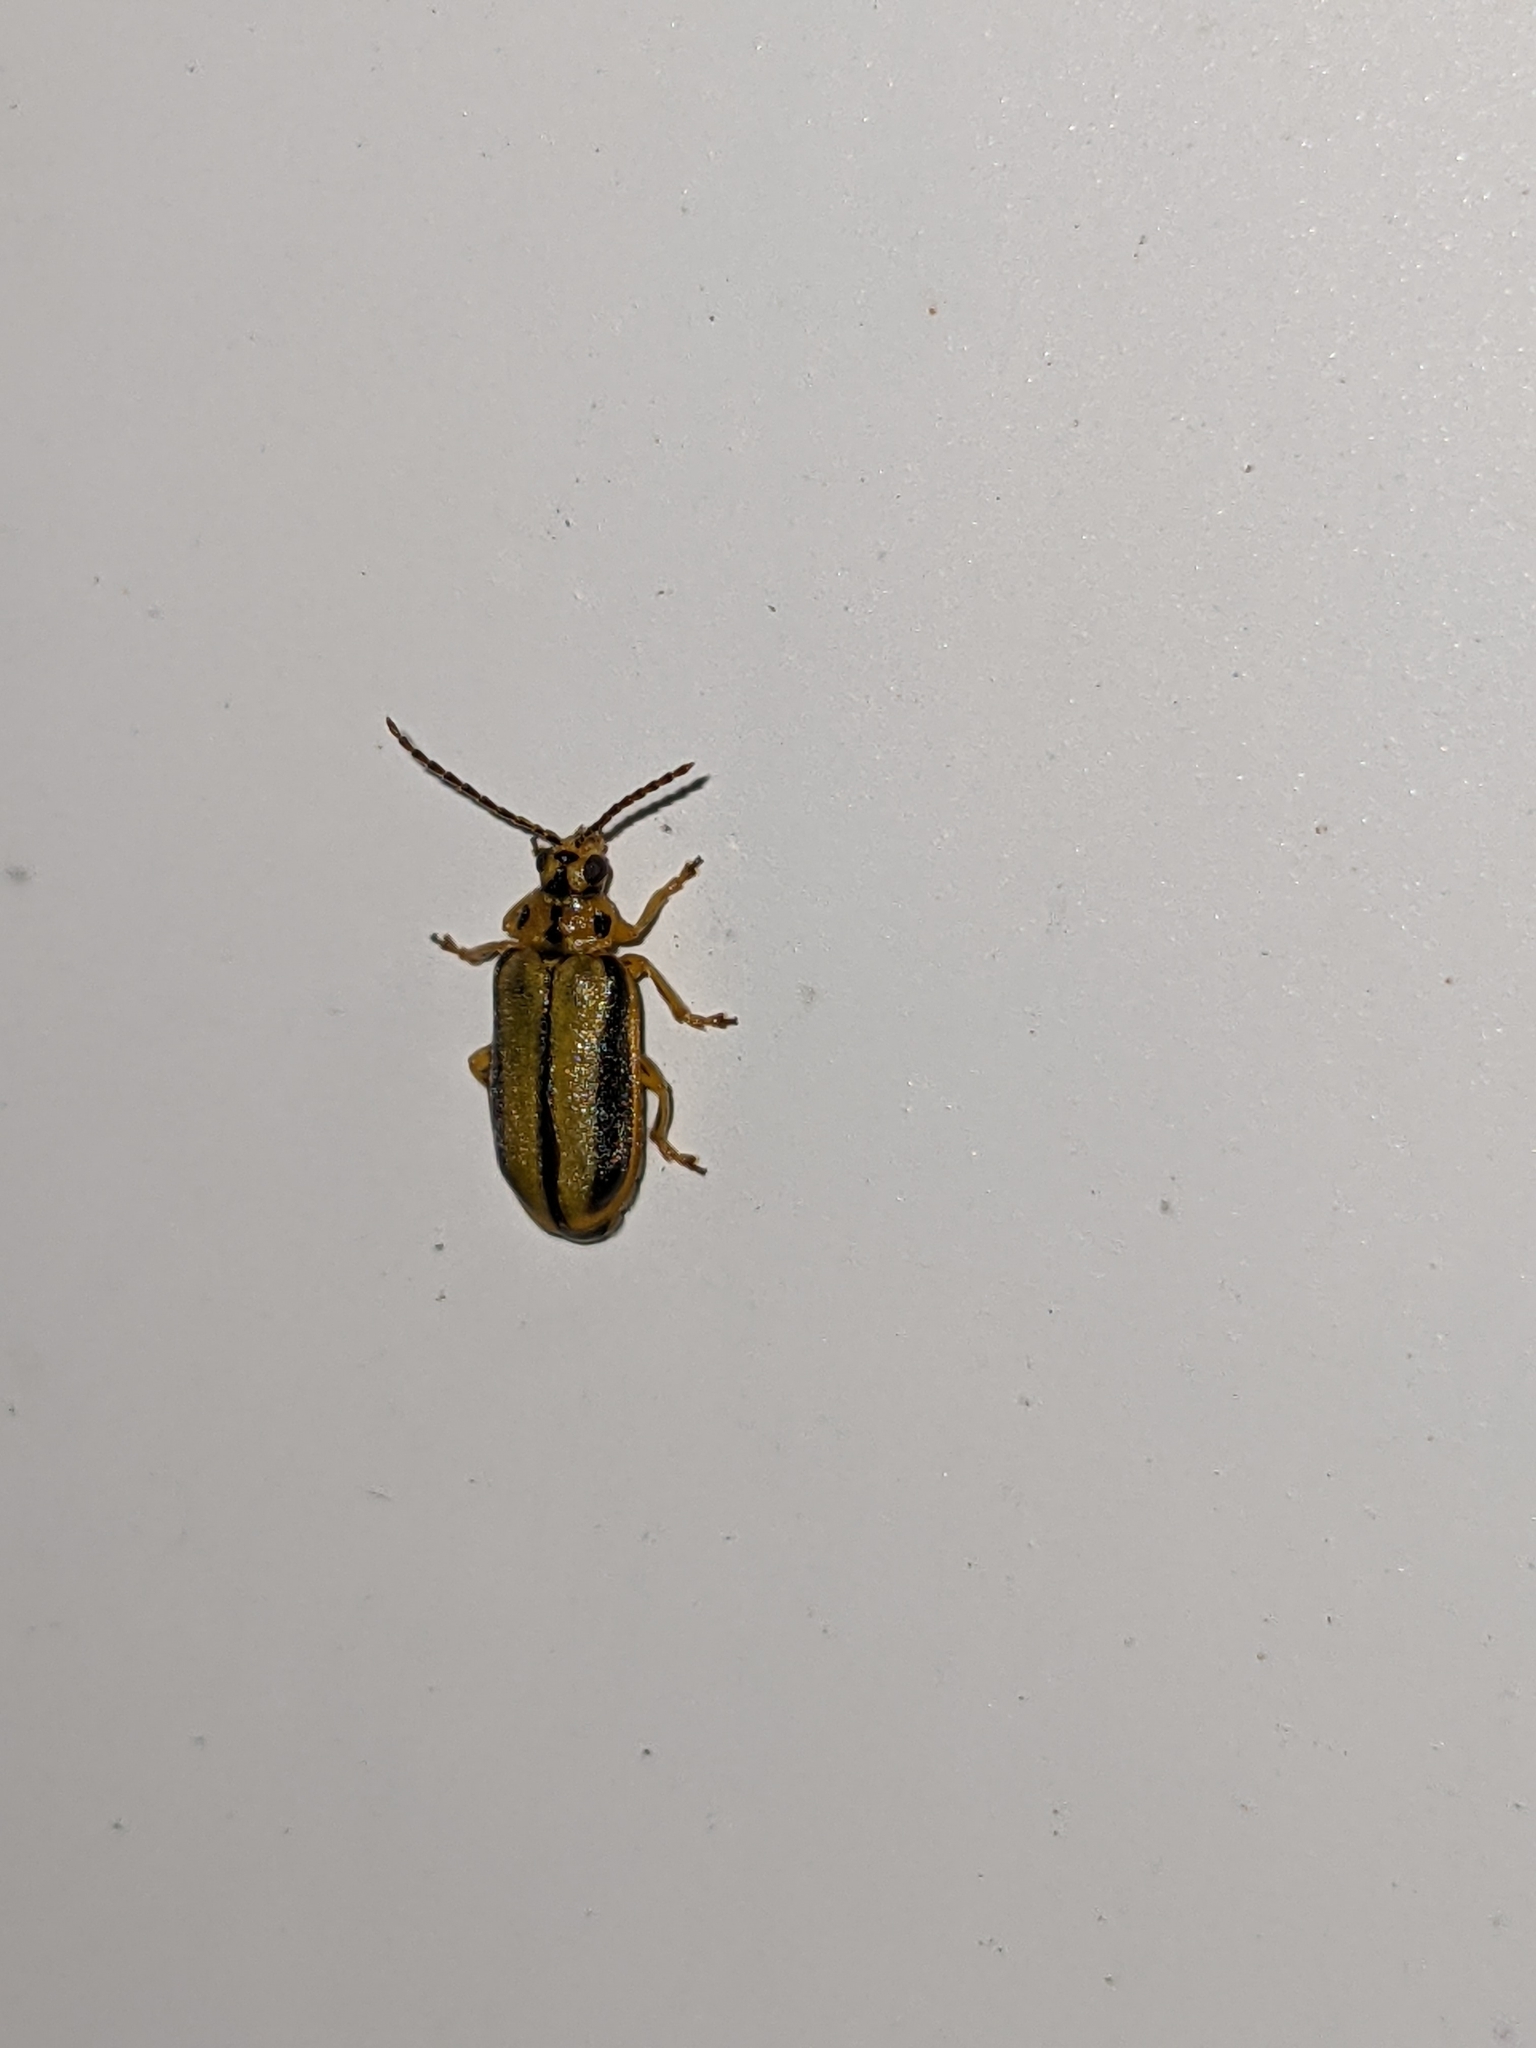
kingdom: Animalia
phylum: Arthropoda
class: Insecta
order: Coleoptera
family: Chrysomelidae
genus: Xanthogaleruca
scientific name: Xanthogaleruca luteola
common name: Elm leaf beetle
